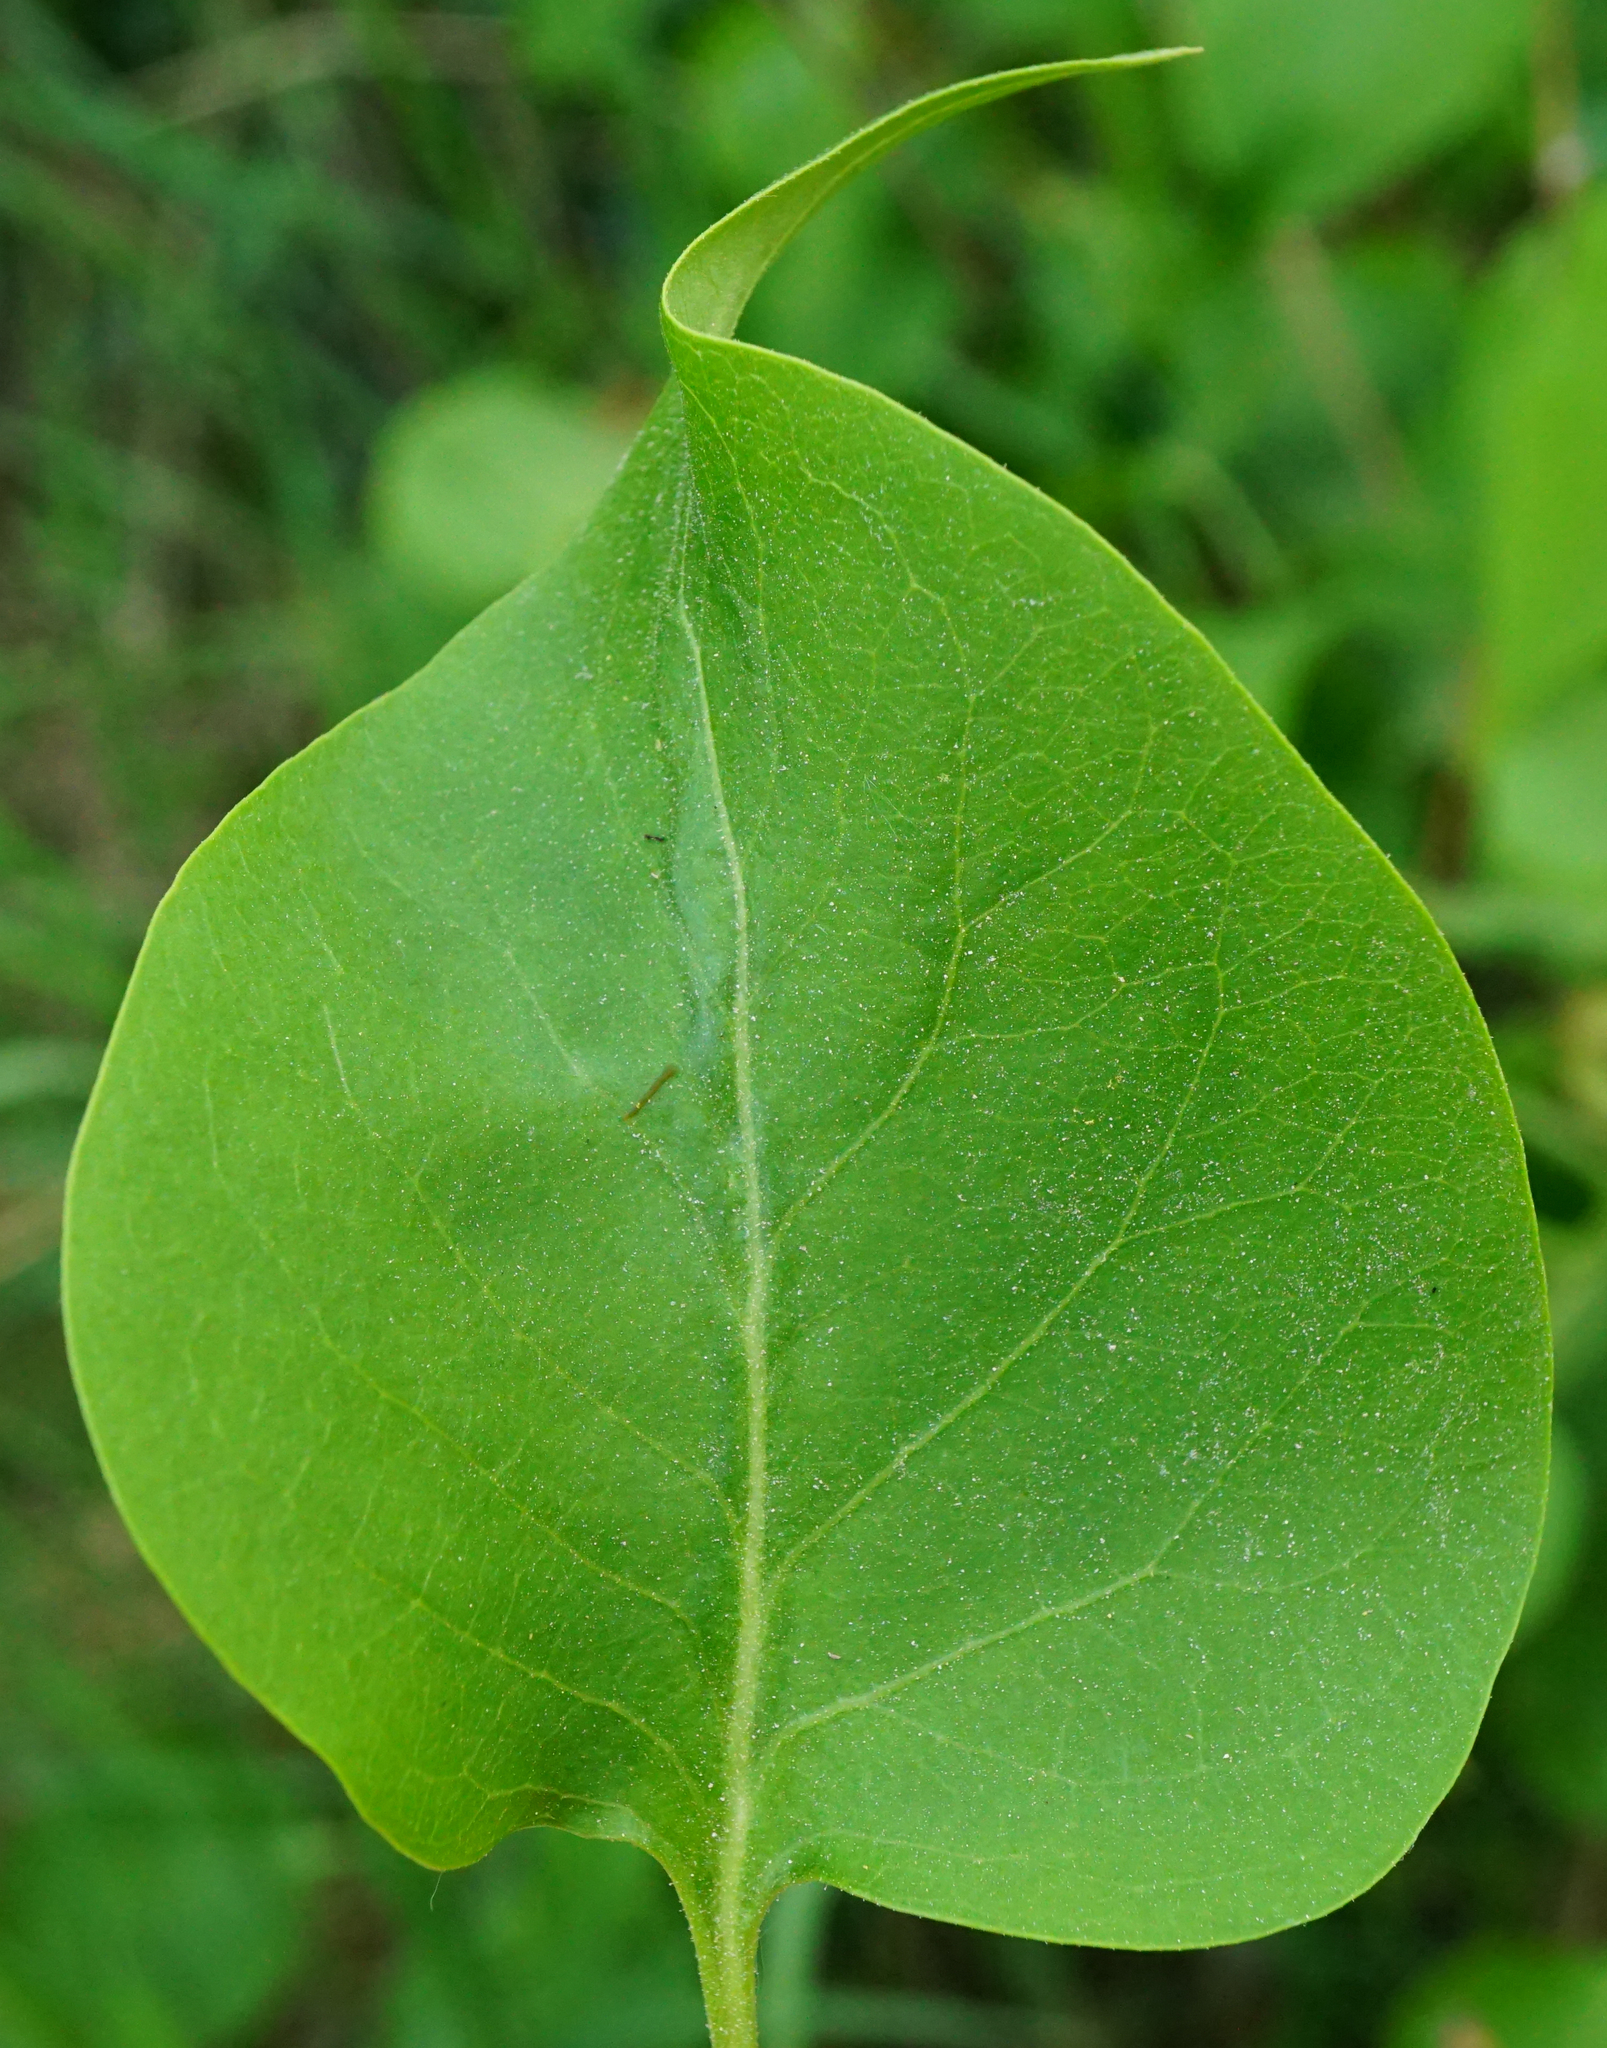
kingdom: Plantae
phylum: Tracheophyta
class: Magnoliopsida
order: Lamiales
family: Oleaceae
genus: Syringa
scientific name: Syringa vulgaris
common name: Common lilac
